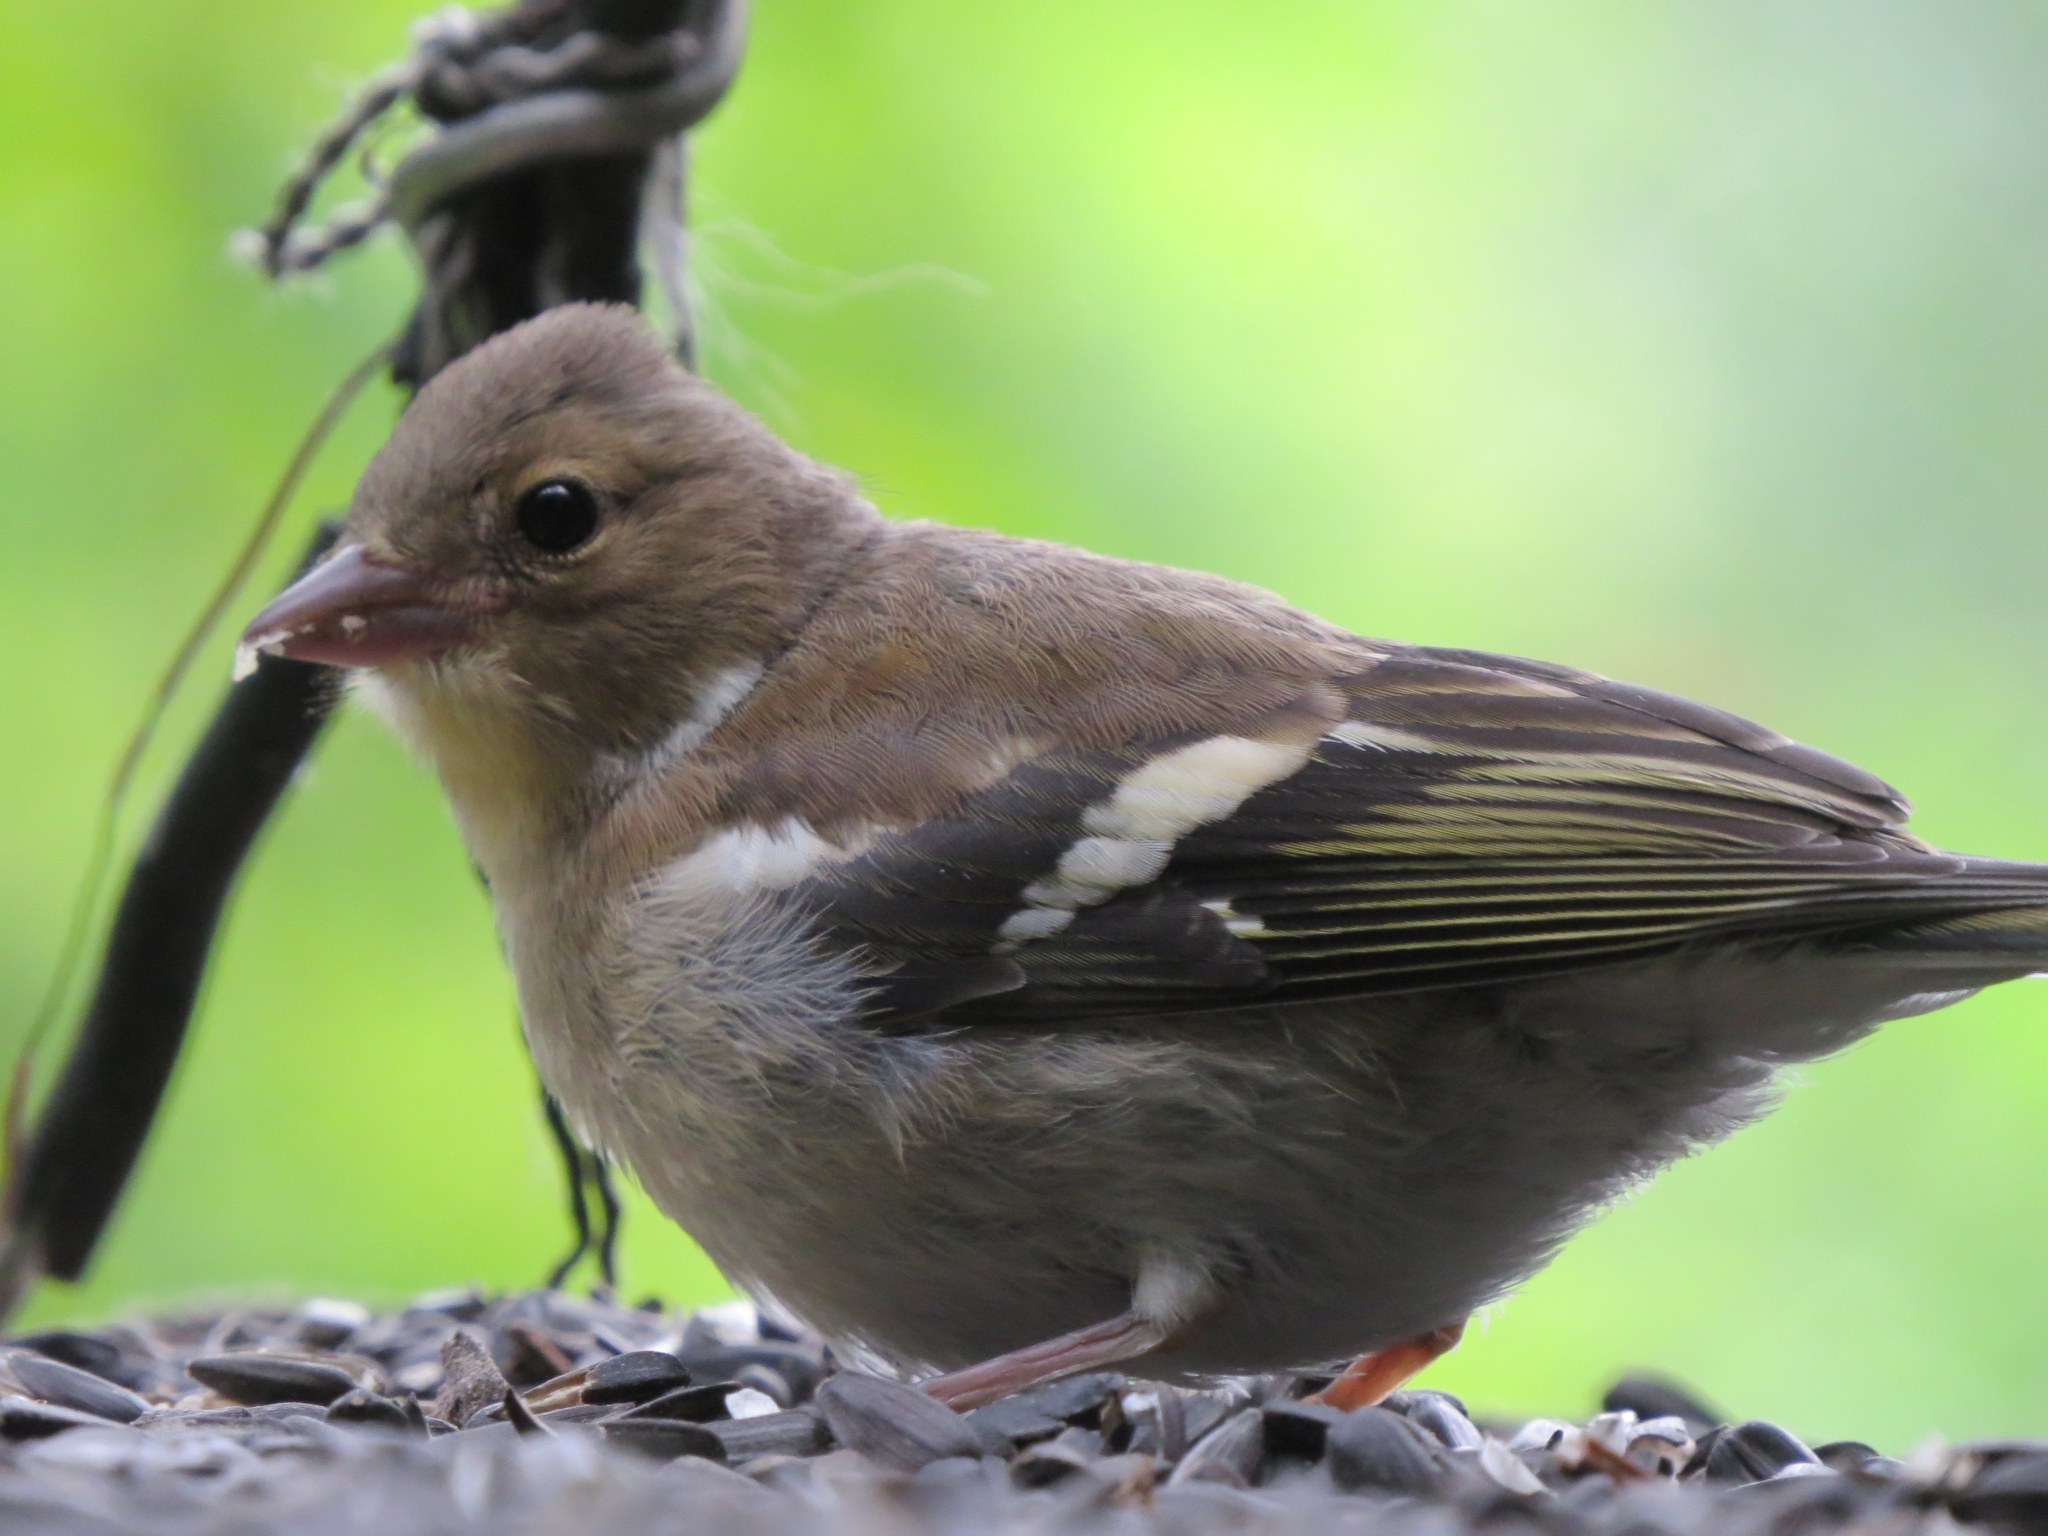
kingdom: Animalia
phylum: Chordata
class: Aves
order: Passeriformes
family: Fringillidae
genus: Fringilla
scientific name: Fringilla coelebs
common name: Common chaffinch
